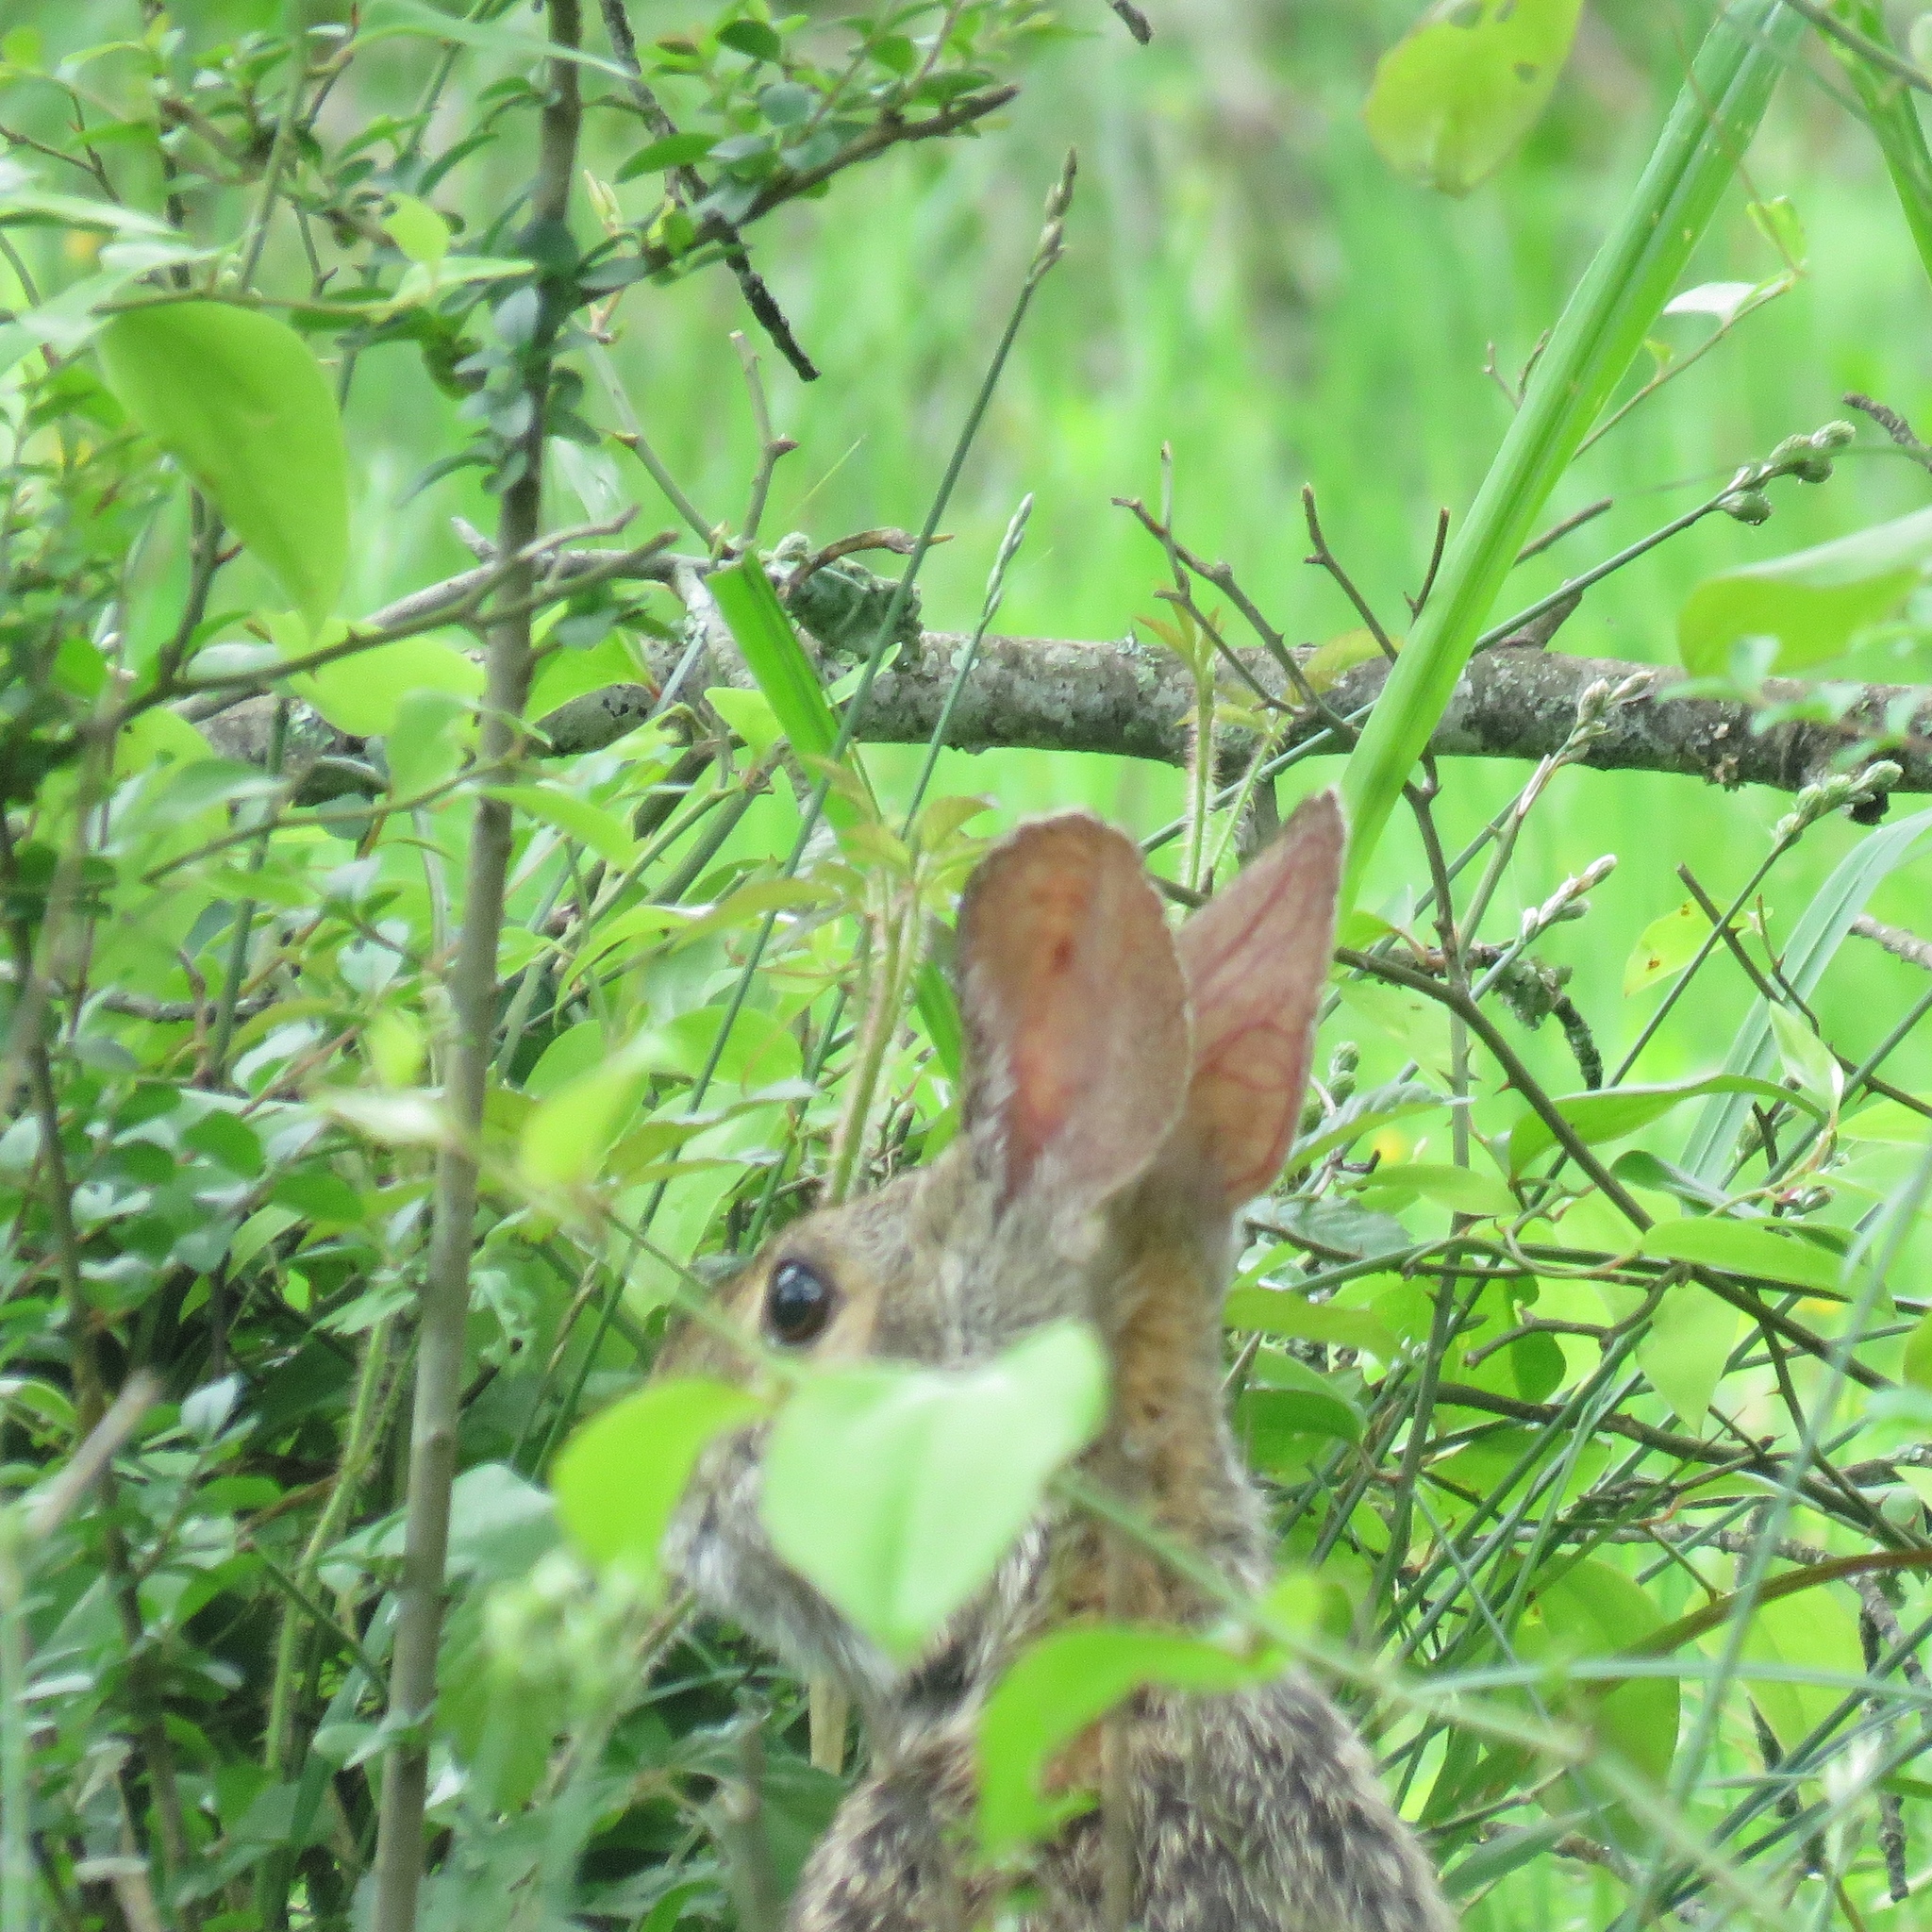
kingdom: Animalia
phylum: Chordata
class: Mammalia
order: Lagomorpha
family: Leporidae
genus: Sylvilagus
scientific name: Sylvilagus floridanus
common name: Eastern cottontail
